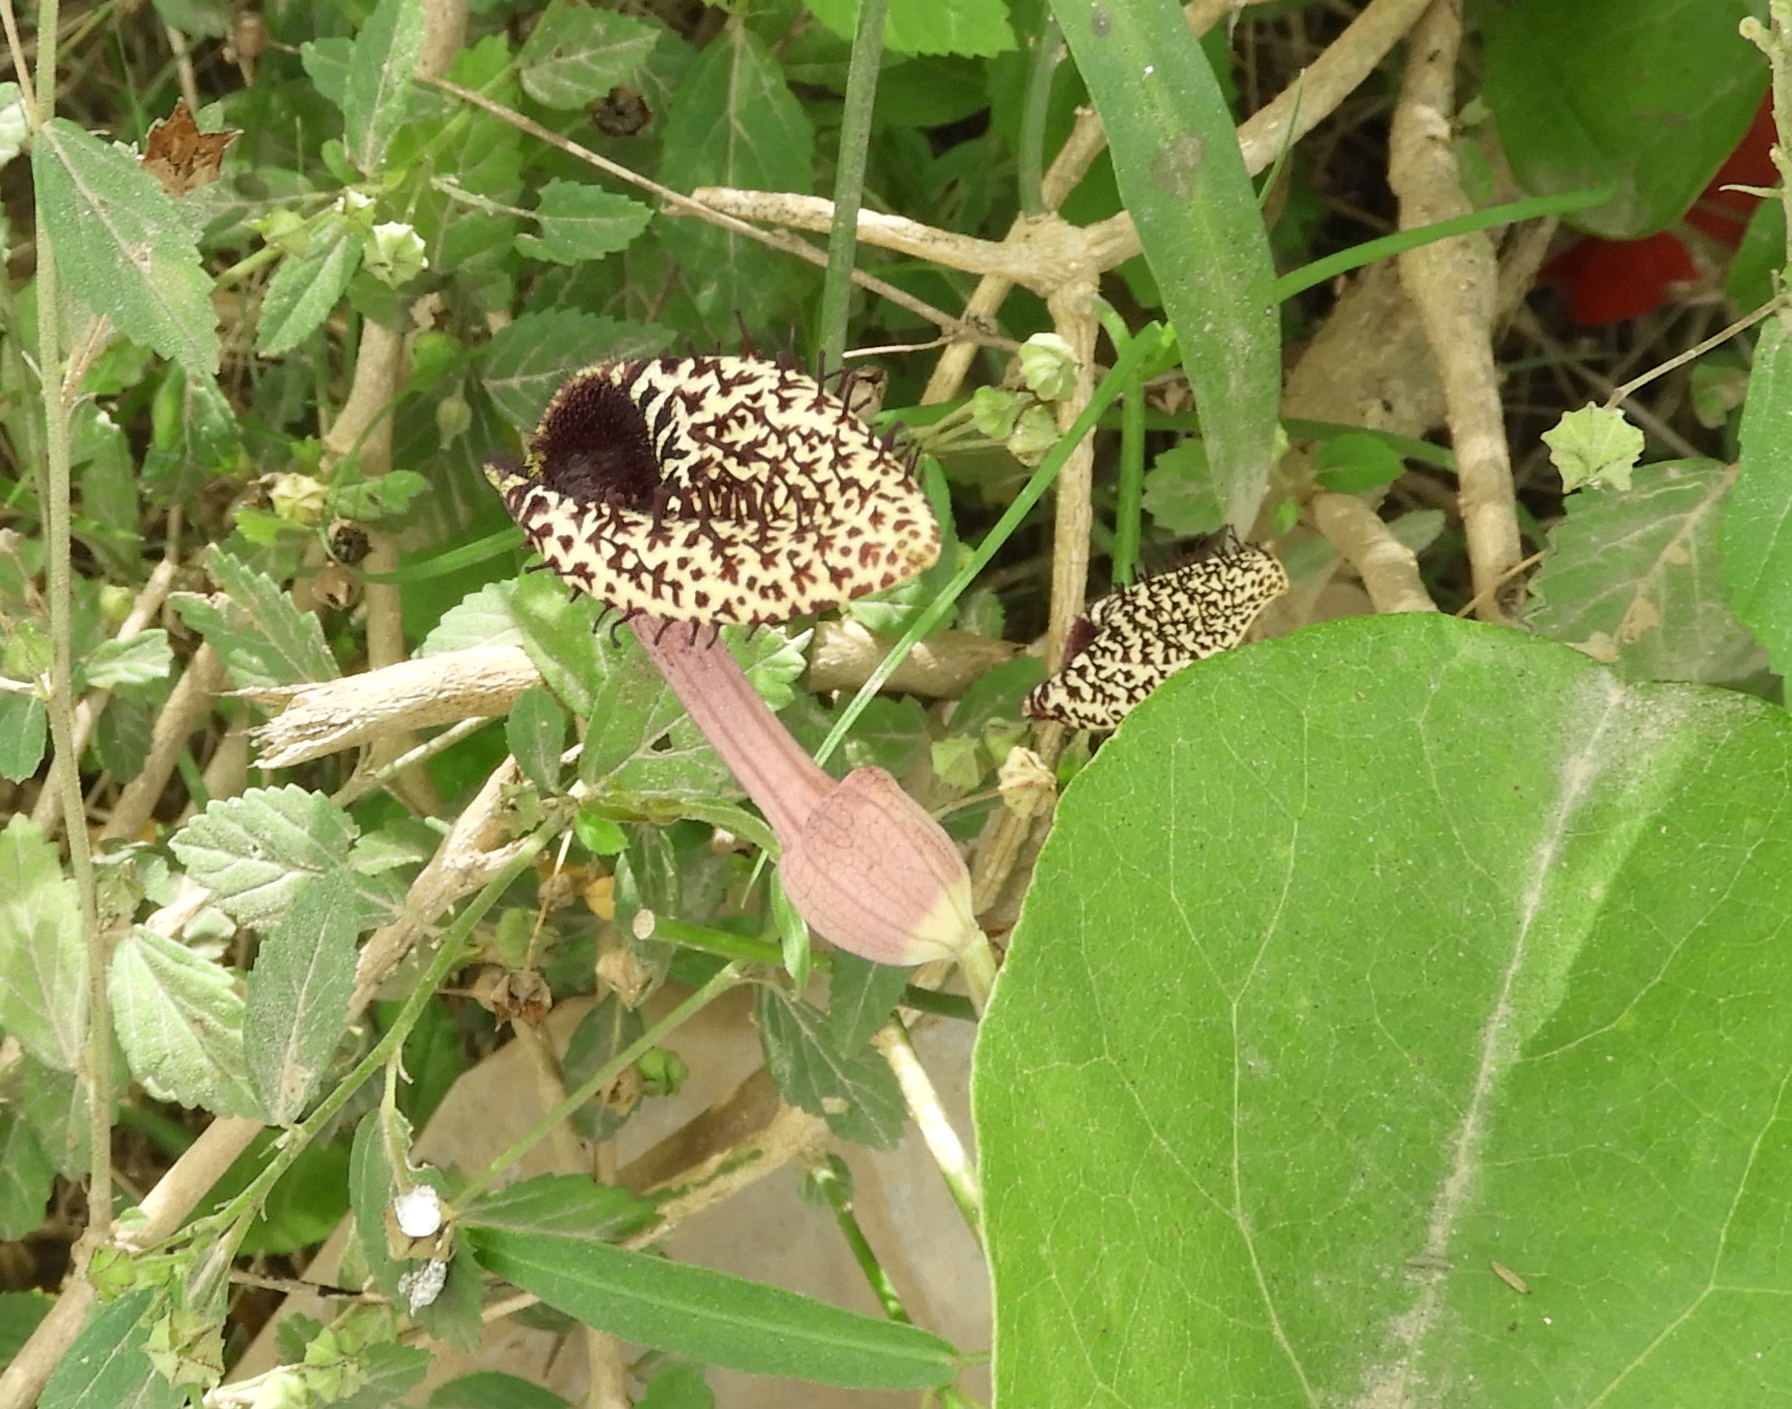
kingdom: Plantae
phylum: Tracheophyta
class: Magnoliopsida
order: Piperales
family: Aristolochiaceae
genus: Aristolochia
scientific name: Aristolochia taliscana
